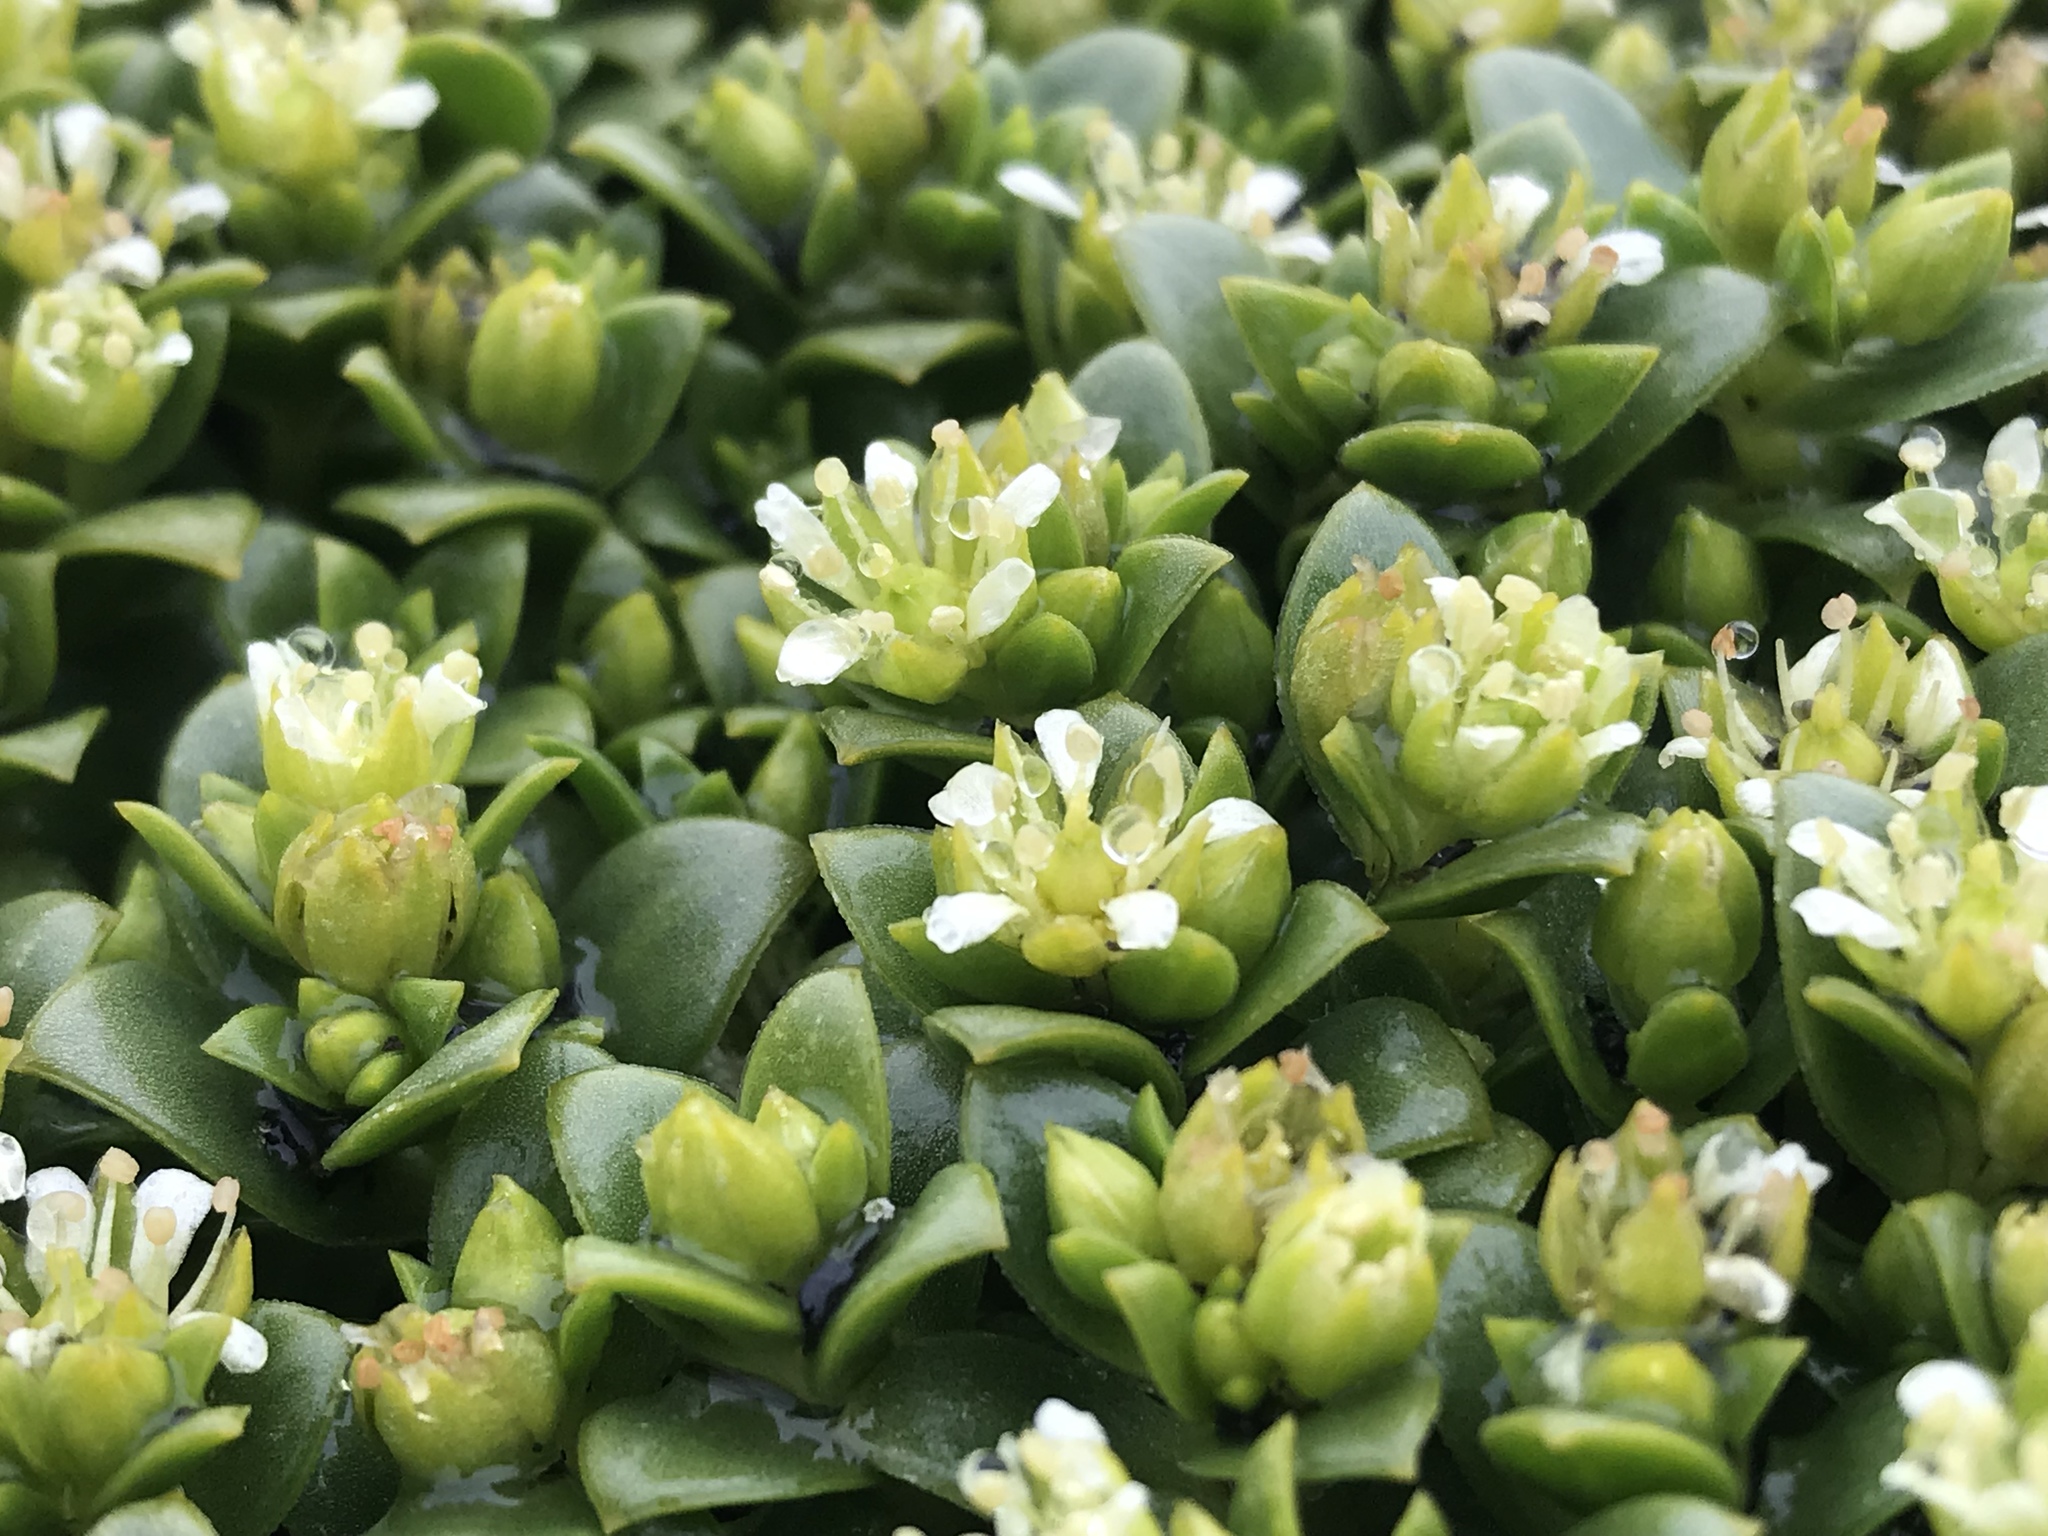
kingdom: Plantae
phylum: Tracheophyta
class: Magnoliopsida
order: Caryophyllales
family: Caryophyllaceae
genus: Honckenya
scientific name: Honckenya peploides
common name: Sea sandwort
